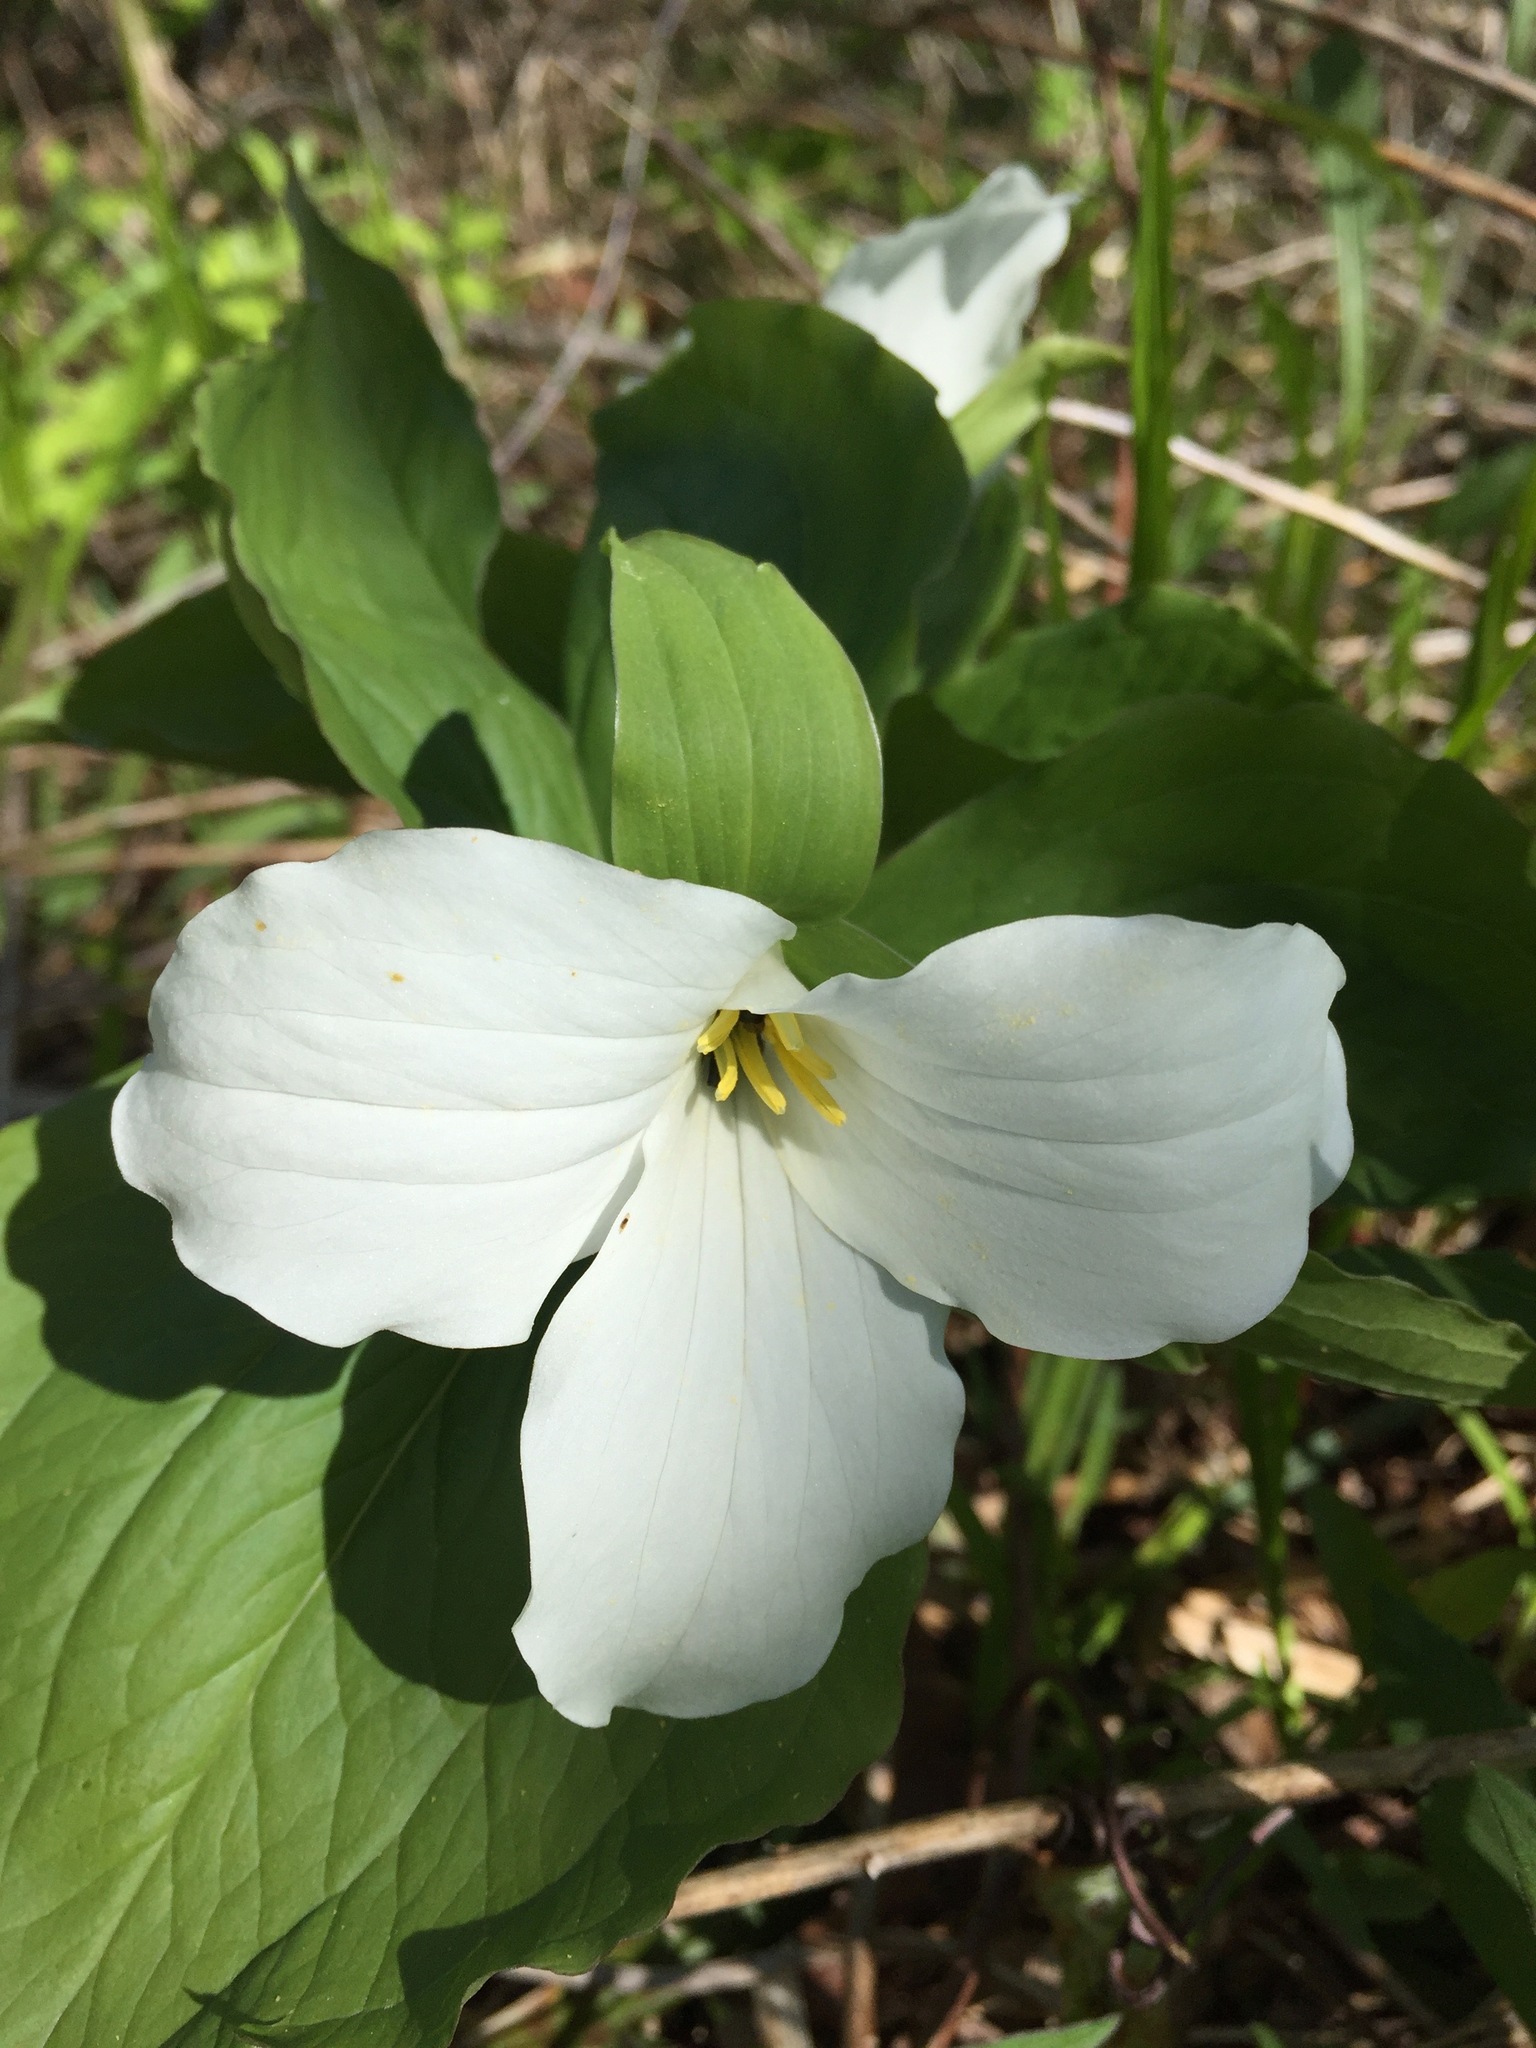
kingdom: Plantae
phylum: Tracheophyta
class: Liliopsida
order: Liliales
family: Melanthiaceae
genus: Trillium
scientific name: Trillium grandiflorum
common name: Great white trillium
